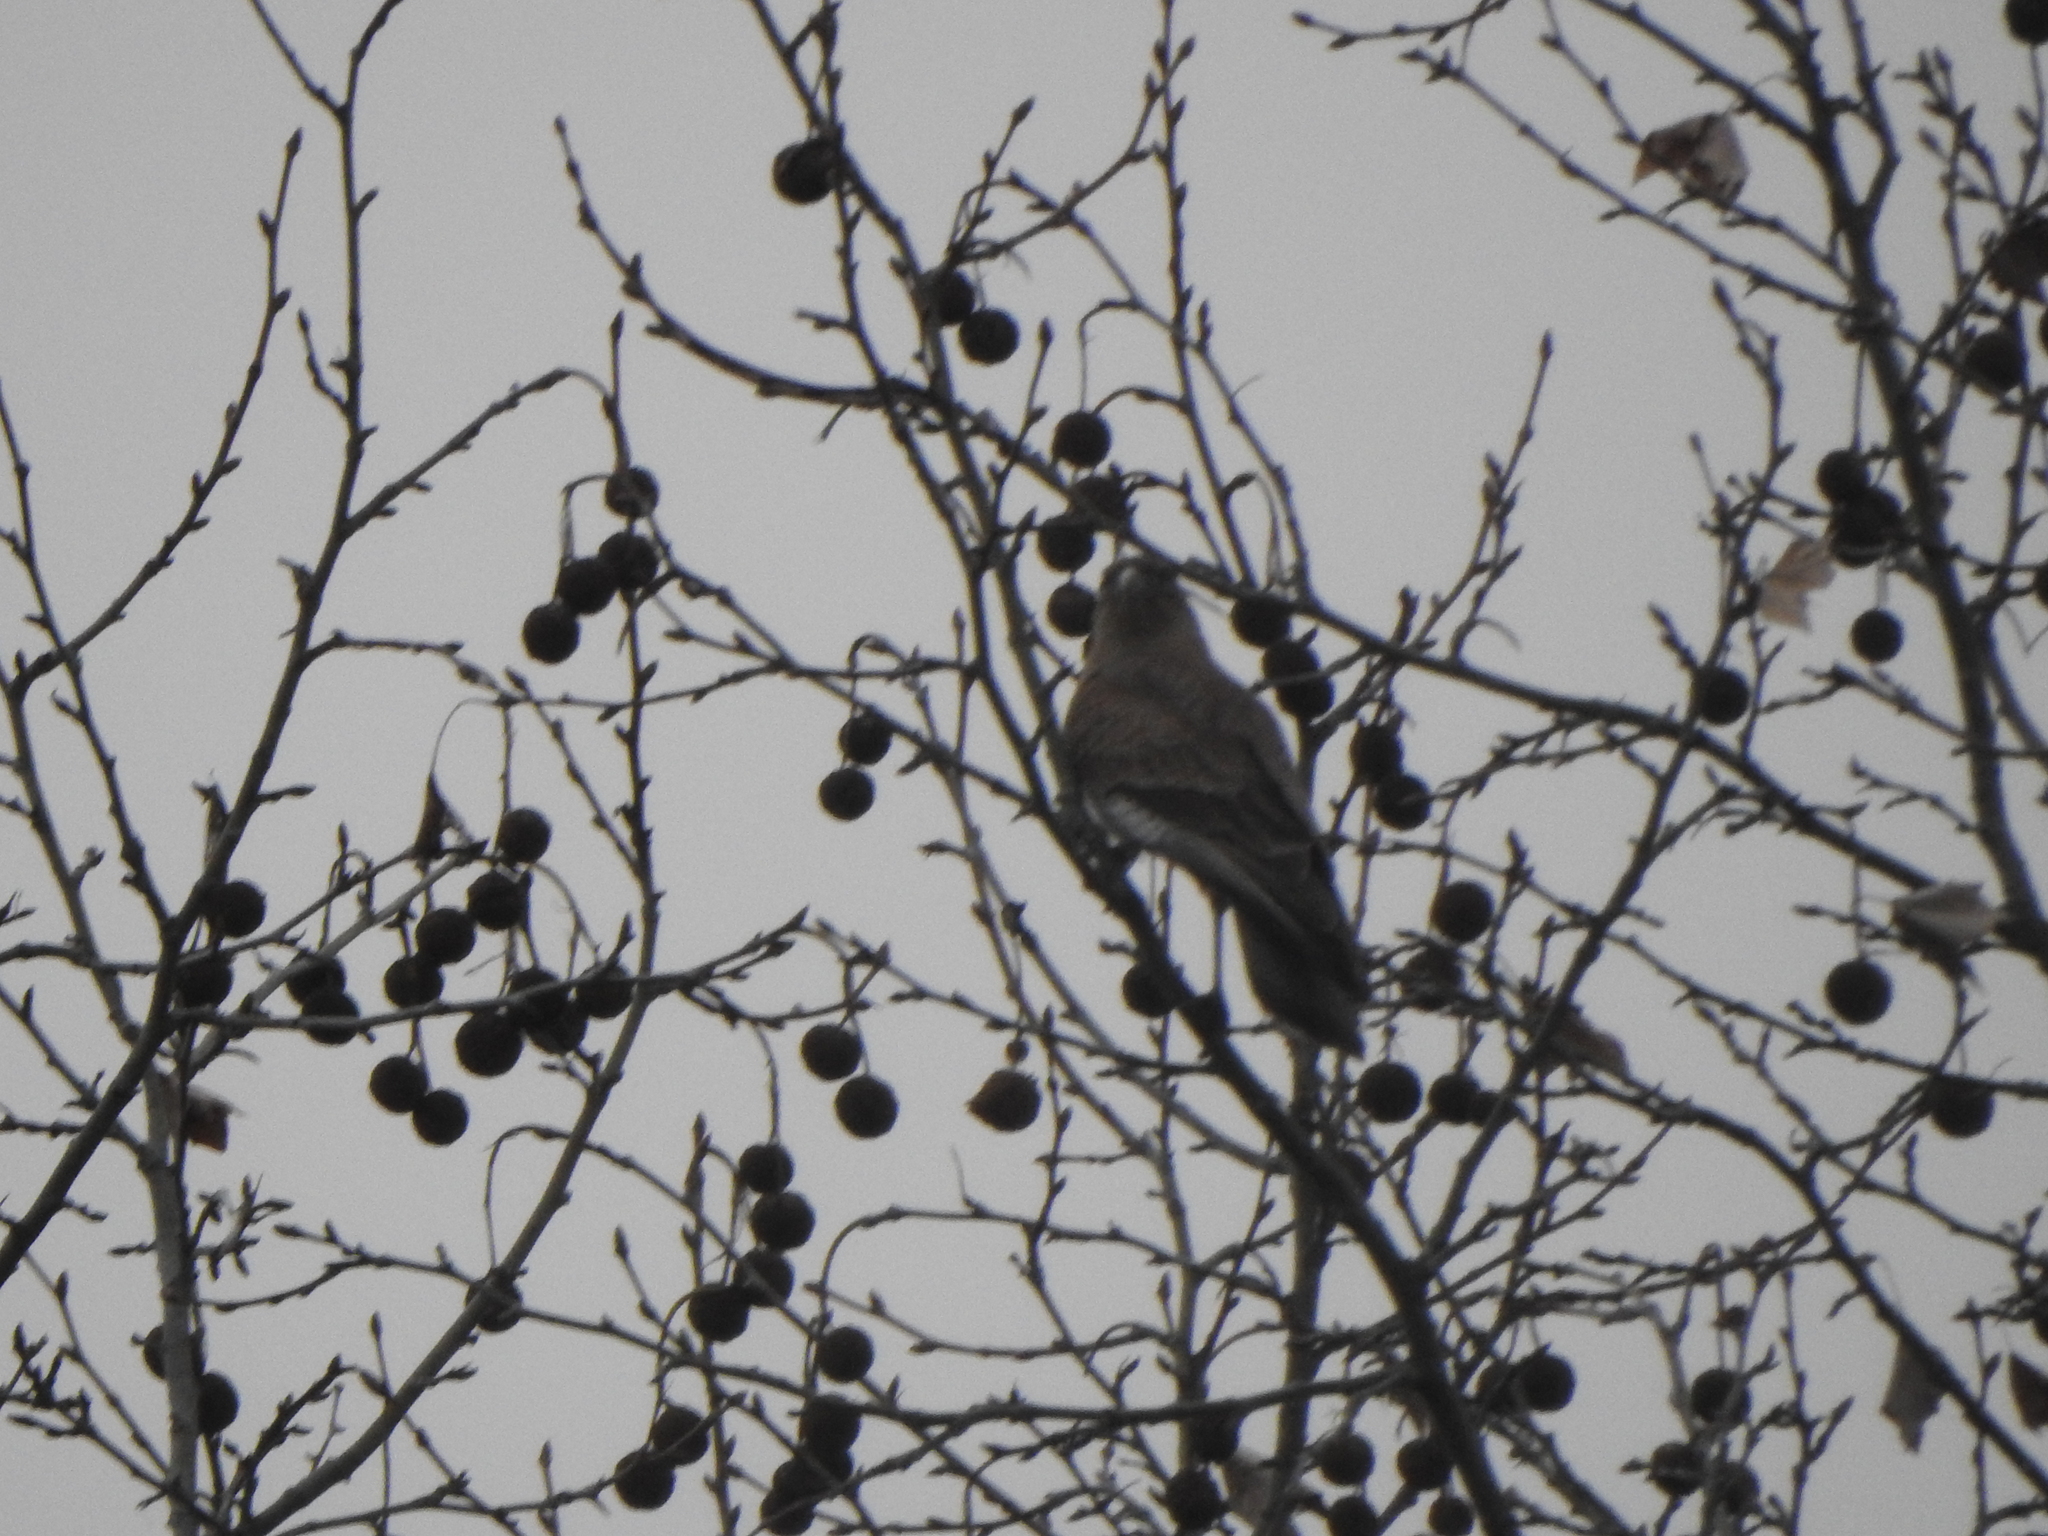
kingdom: Animalia
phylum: Chordata
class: Aves
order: Falconiformes
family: Falconidae
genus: Daptrius
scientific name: Daptrius
